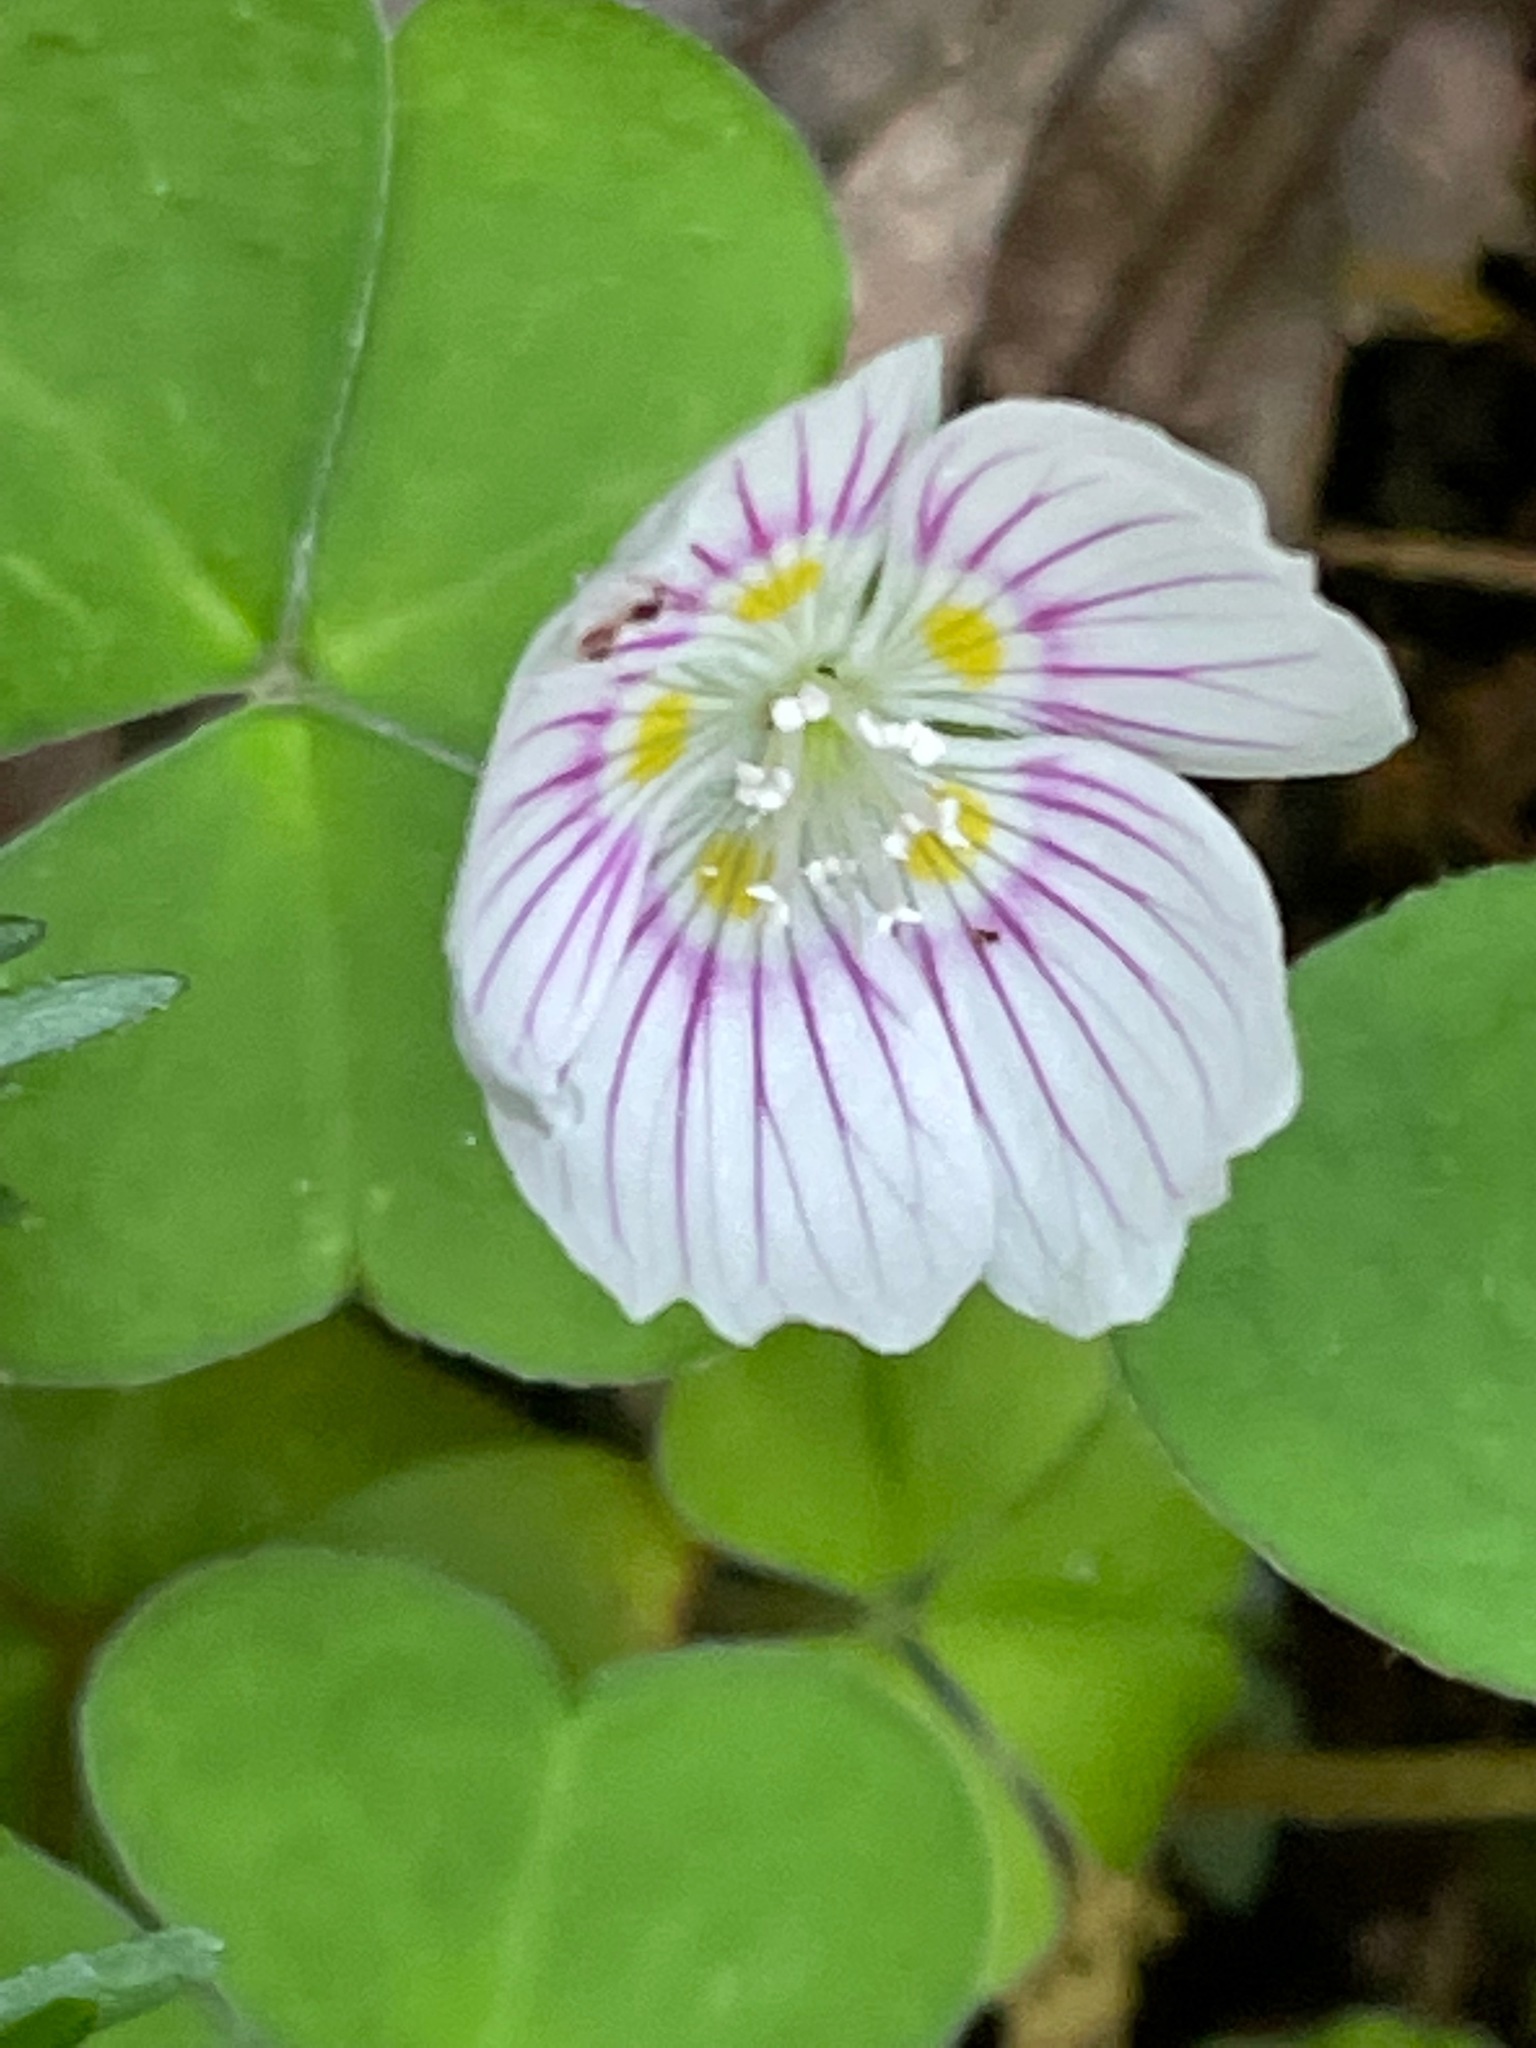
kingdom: Plantae
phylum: Tracheophyta
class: Magnoliopsida
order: Oxalidales
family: Oxalidaceae
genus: Oxalis
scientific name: Oxalis montana
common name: American wood-sorrel
